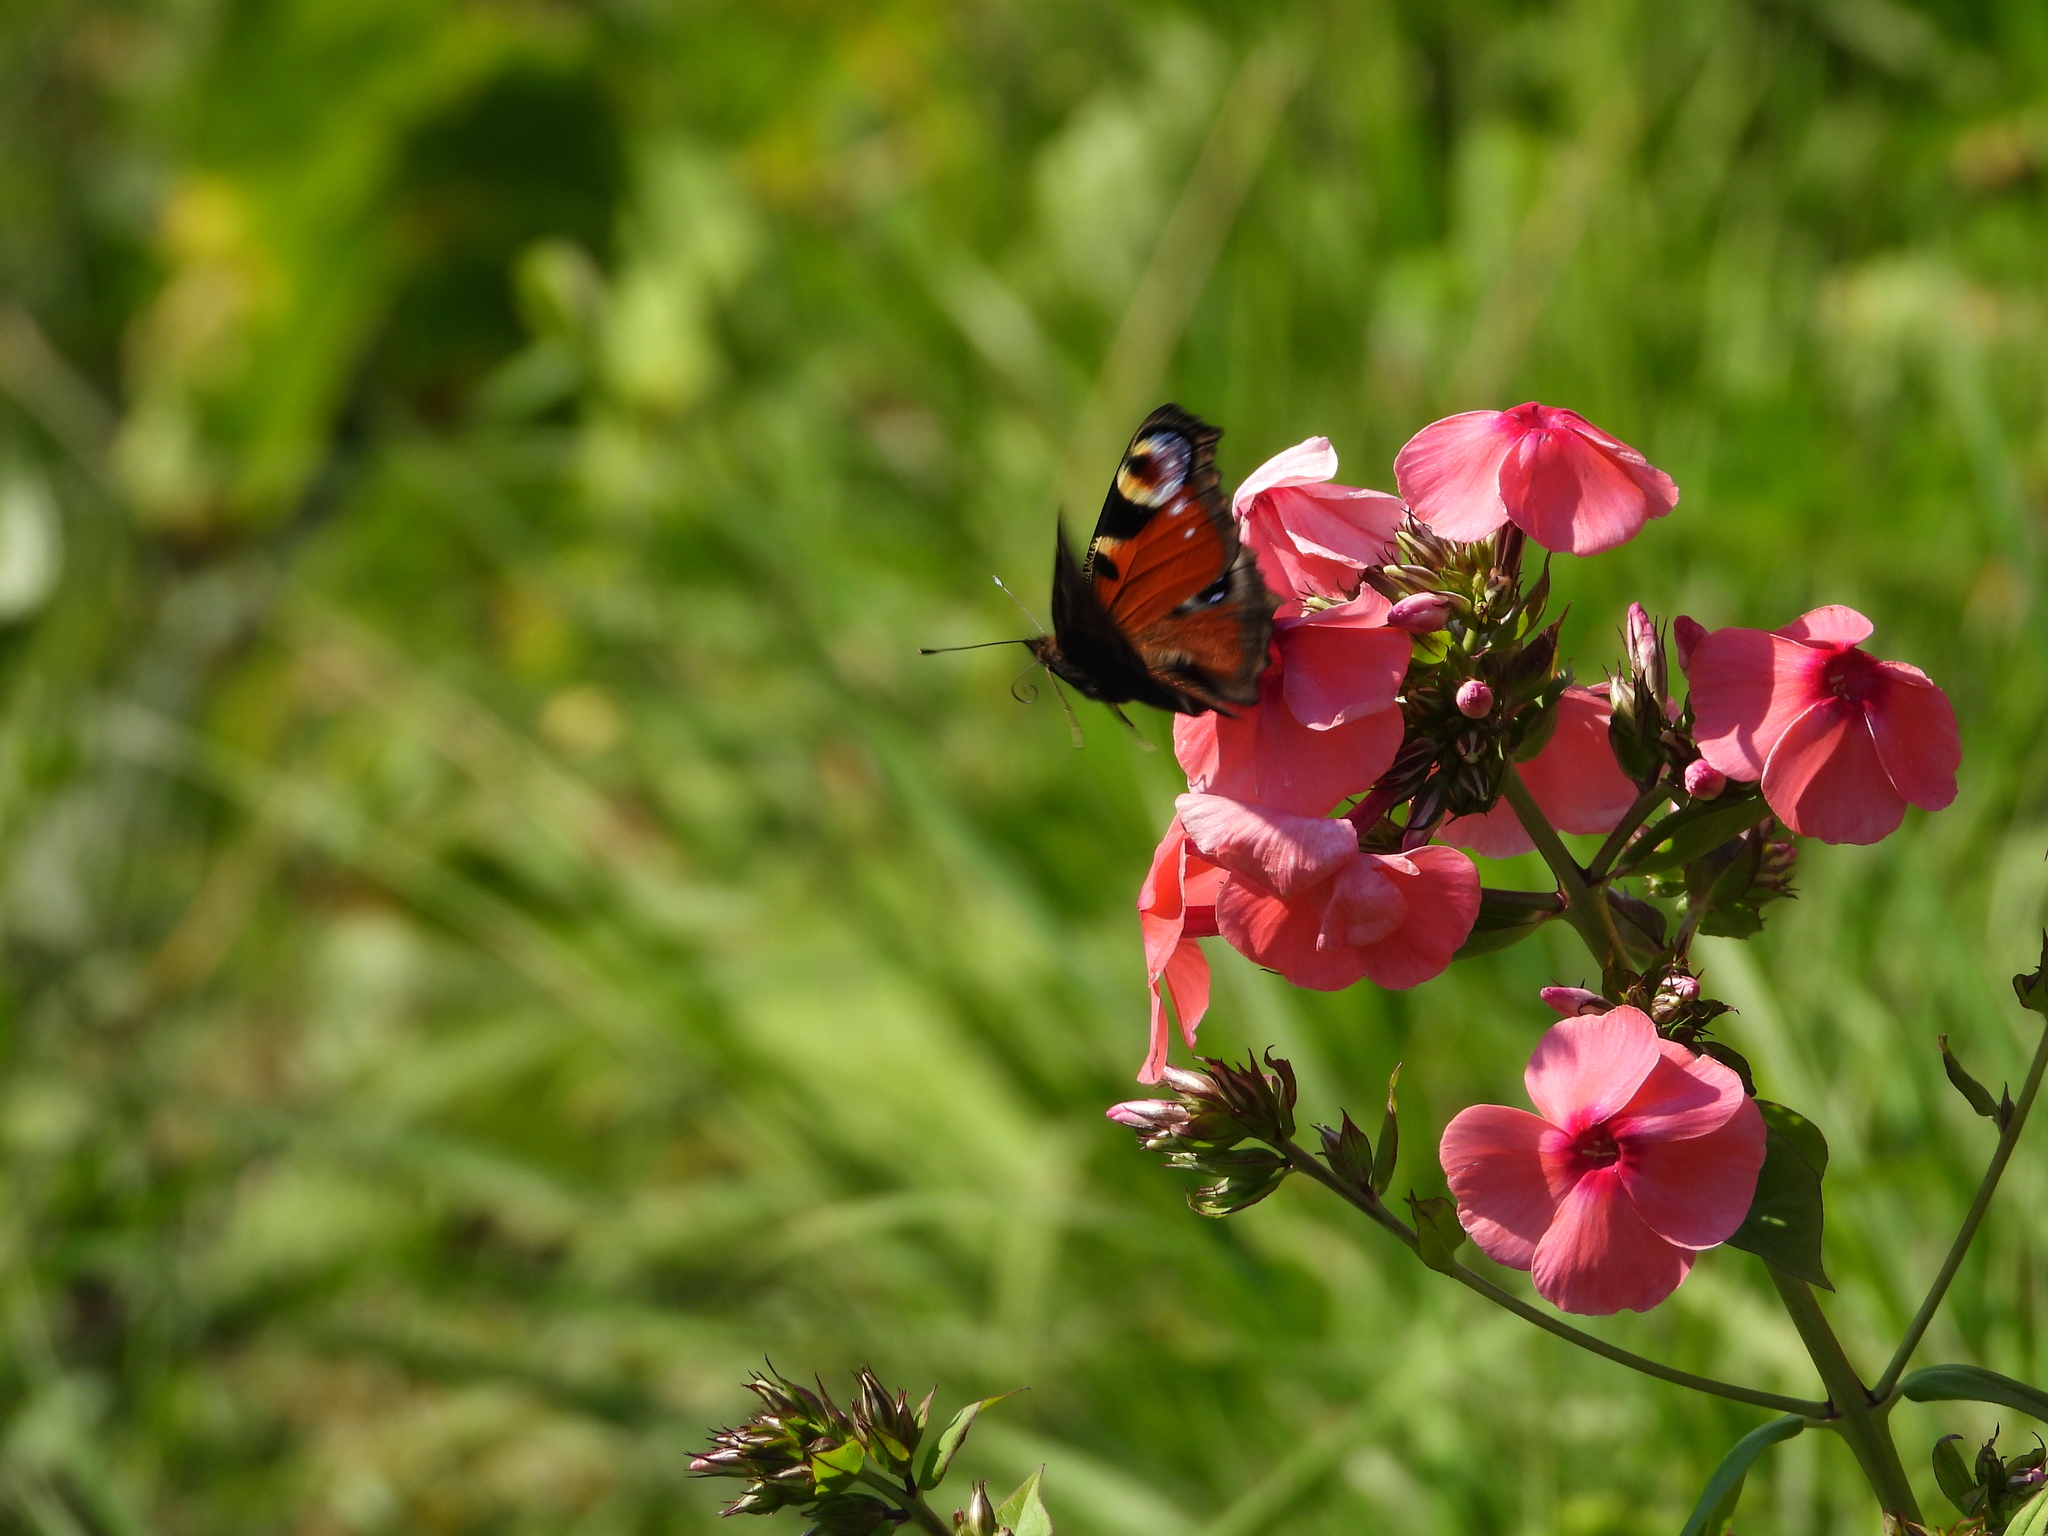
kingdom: Animalia
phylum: Arthropoda
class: Insecta
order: Lepidoptera
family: Nymphalidae
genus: Aglais
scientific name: Aglais io
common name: Peacock
